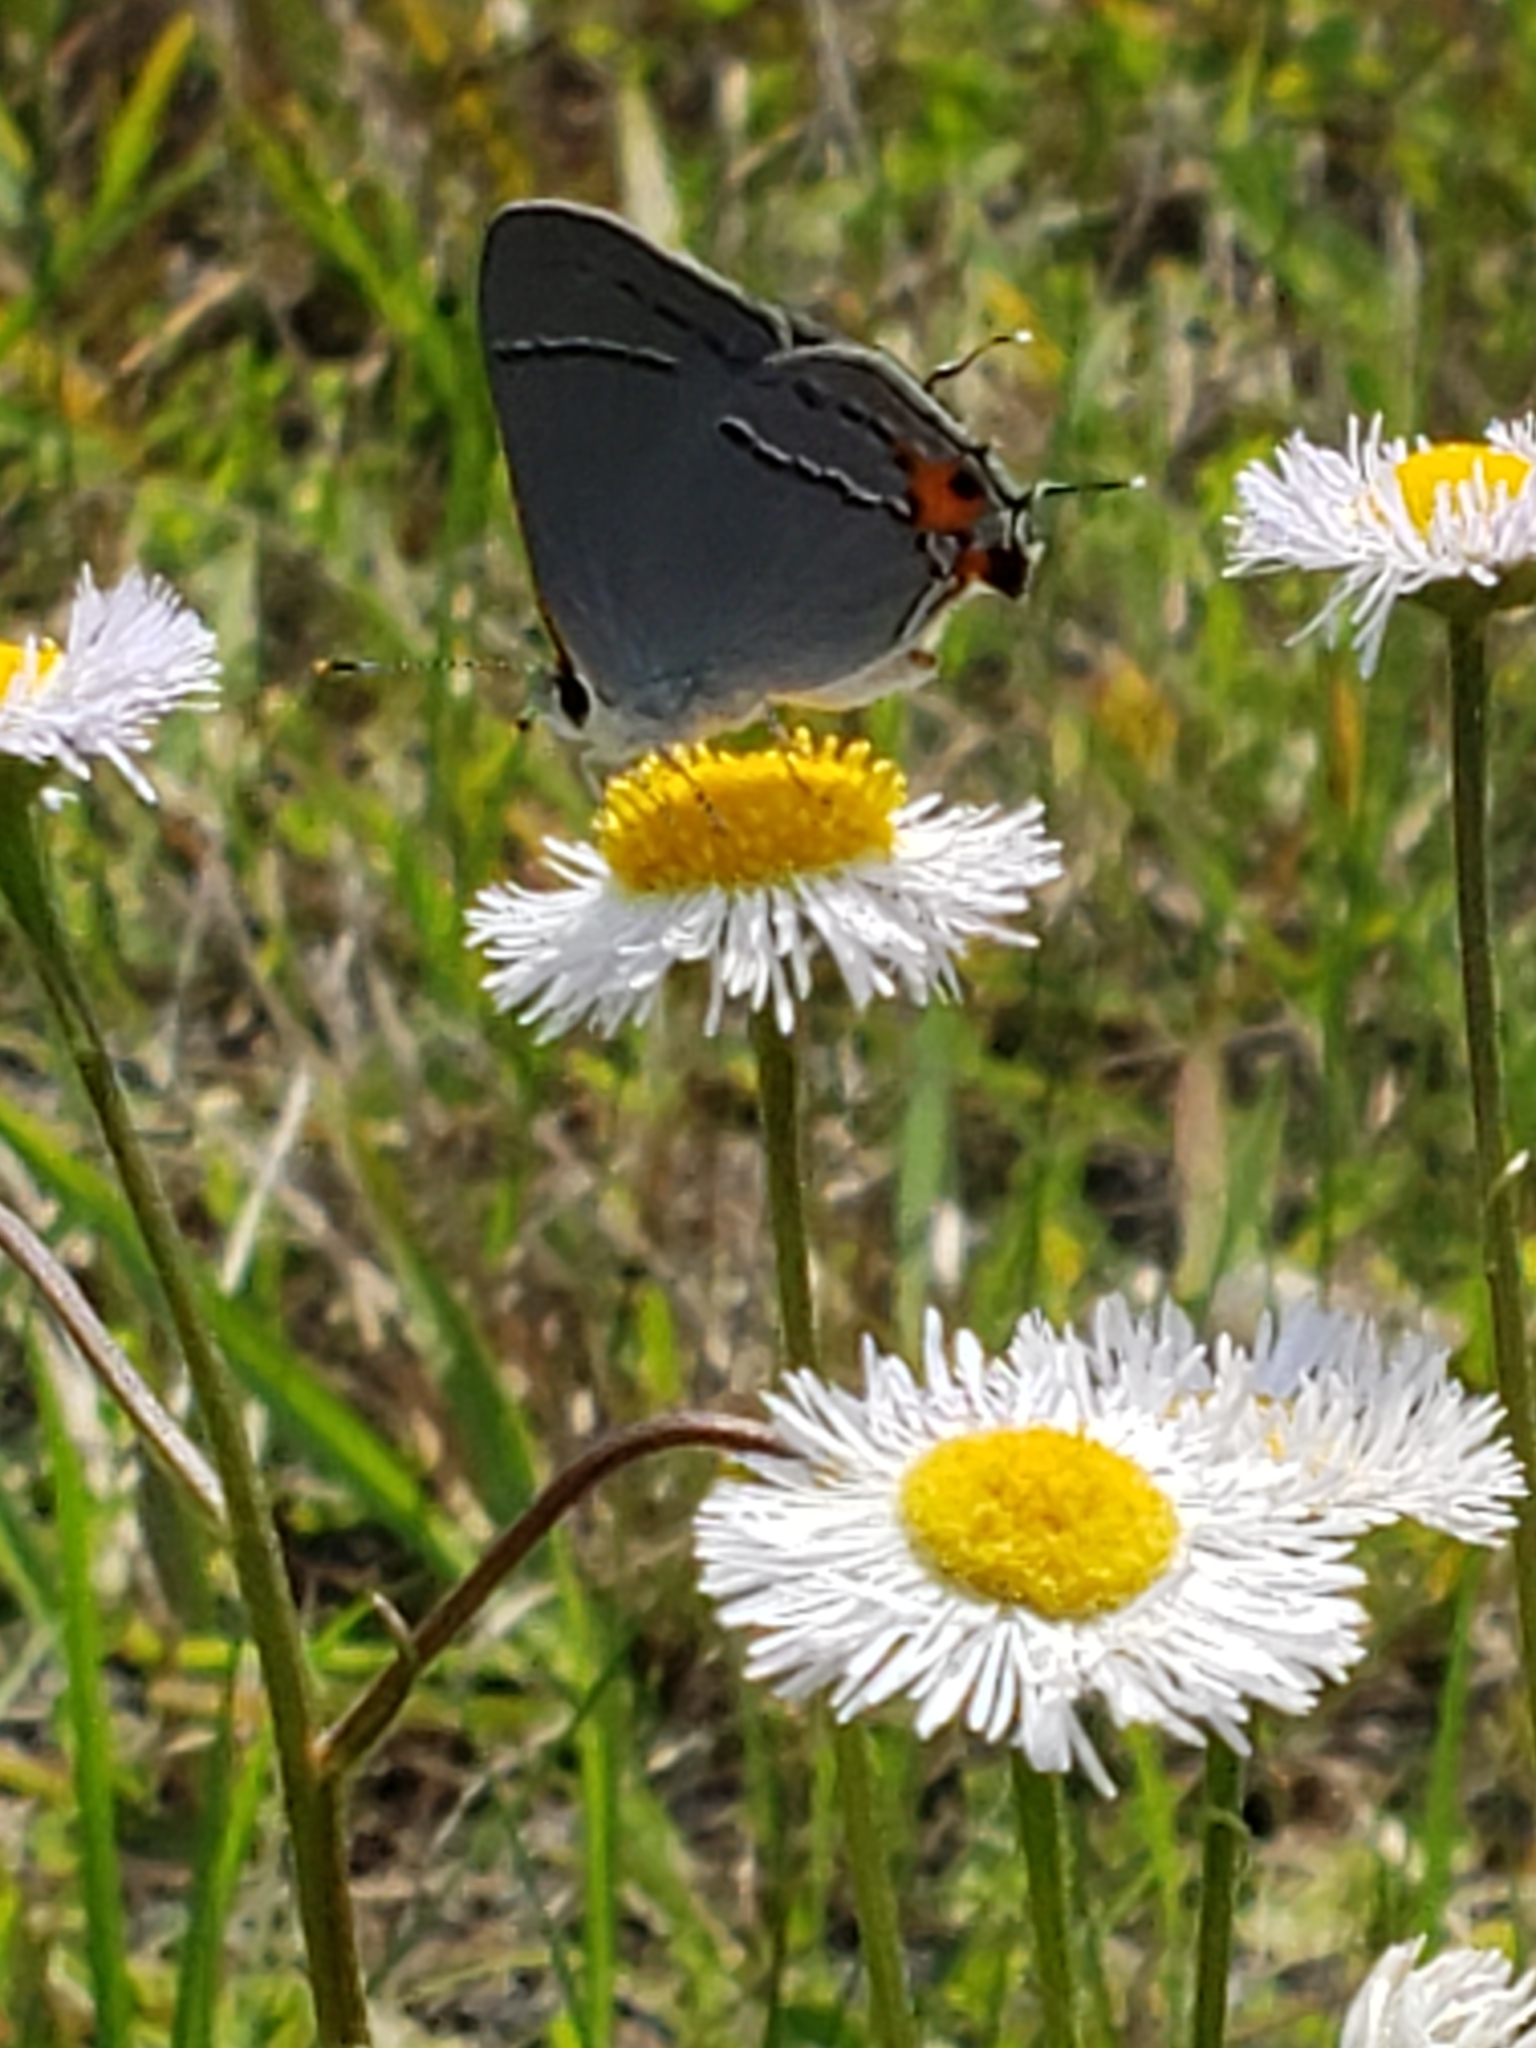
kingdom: Animalia
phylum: Arthropoda
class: Insecta
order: Lepidoptera
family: Lycaenidae
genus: Strymon
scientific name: Strymon melinus
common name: Gray hairstreak
